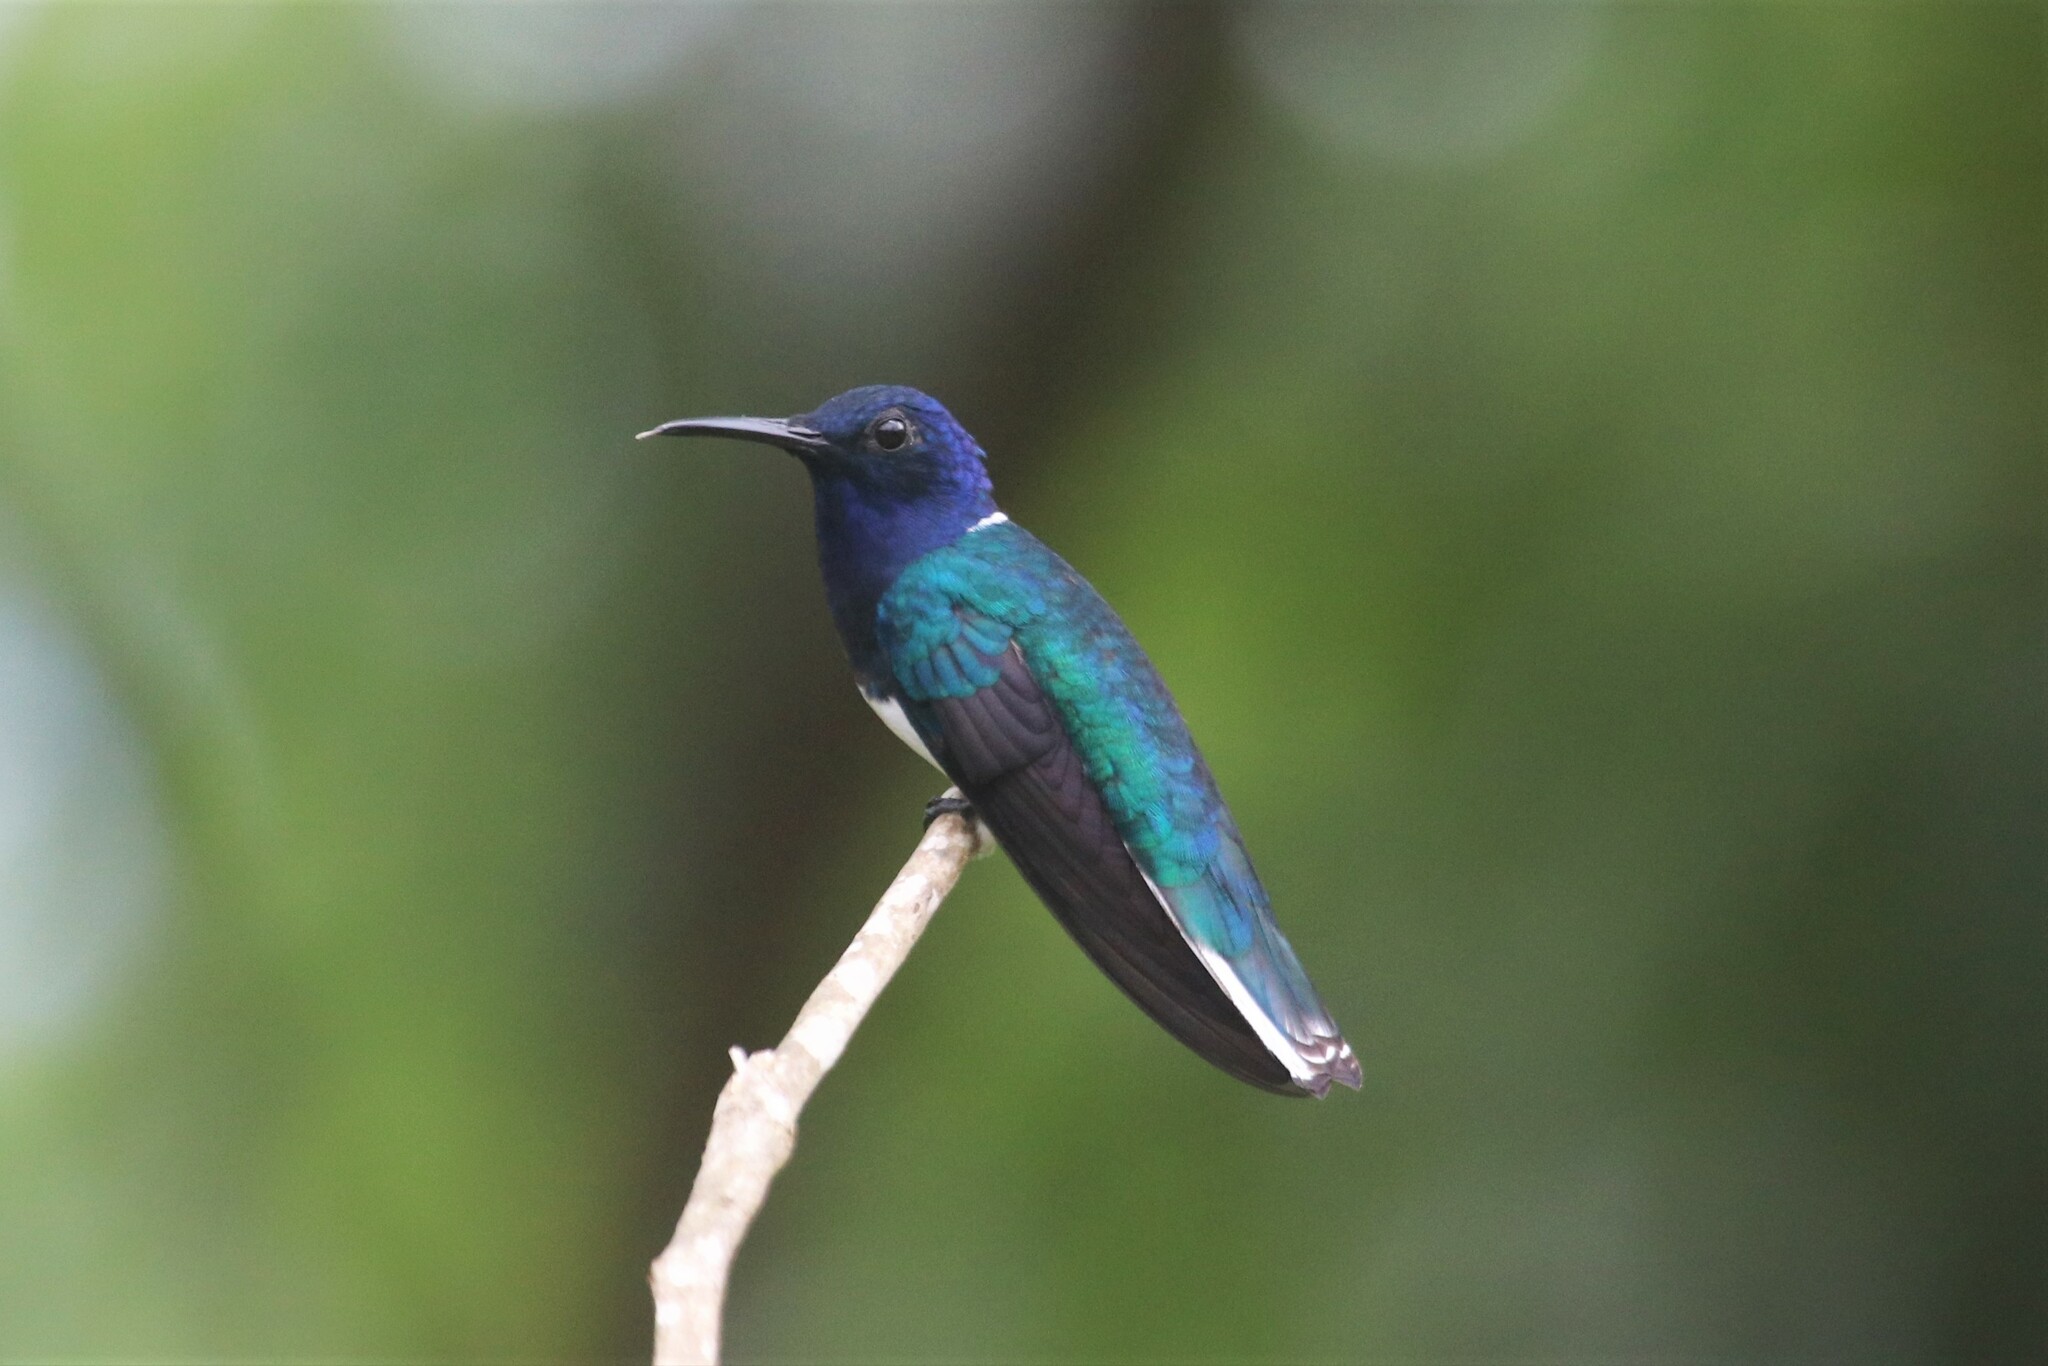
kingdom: Animalia
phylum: Chordata
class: Aves
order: Apodiformes
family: Trochilidae
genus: Florisuga
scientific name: Florisuga mellivora
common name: White-necked jacobin
